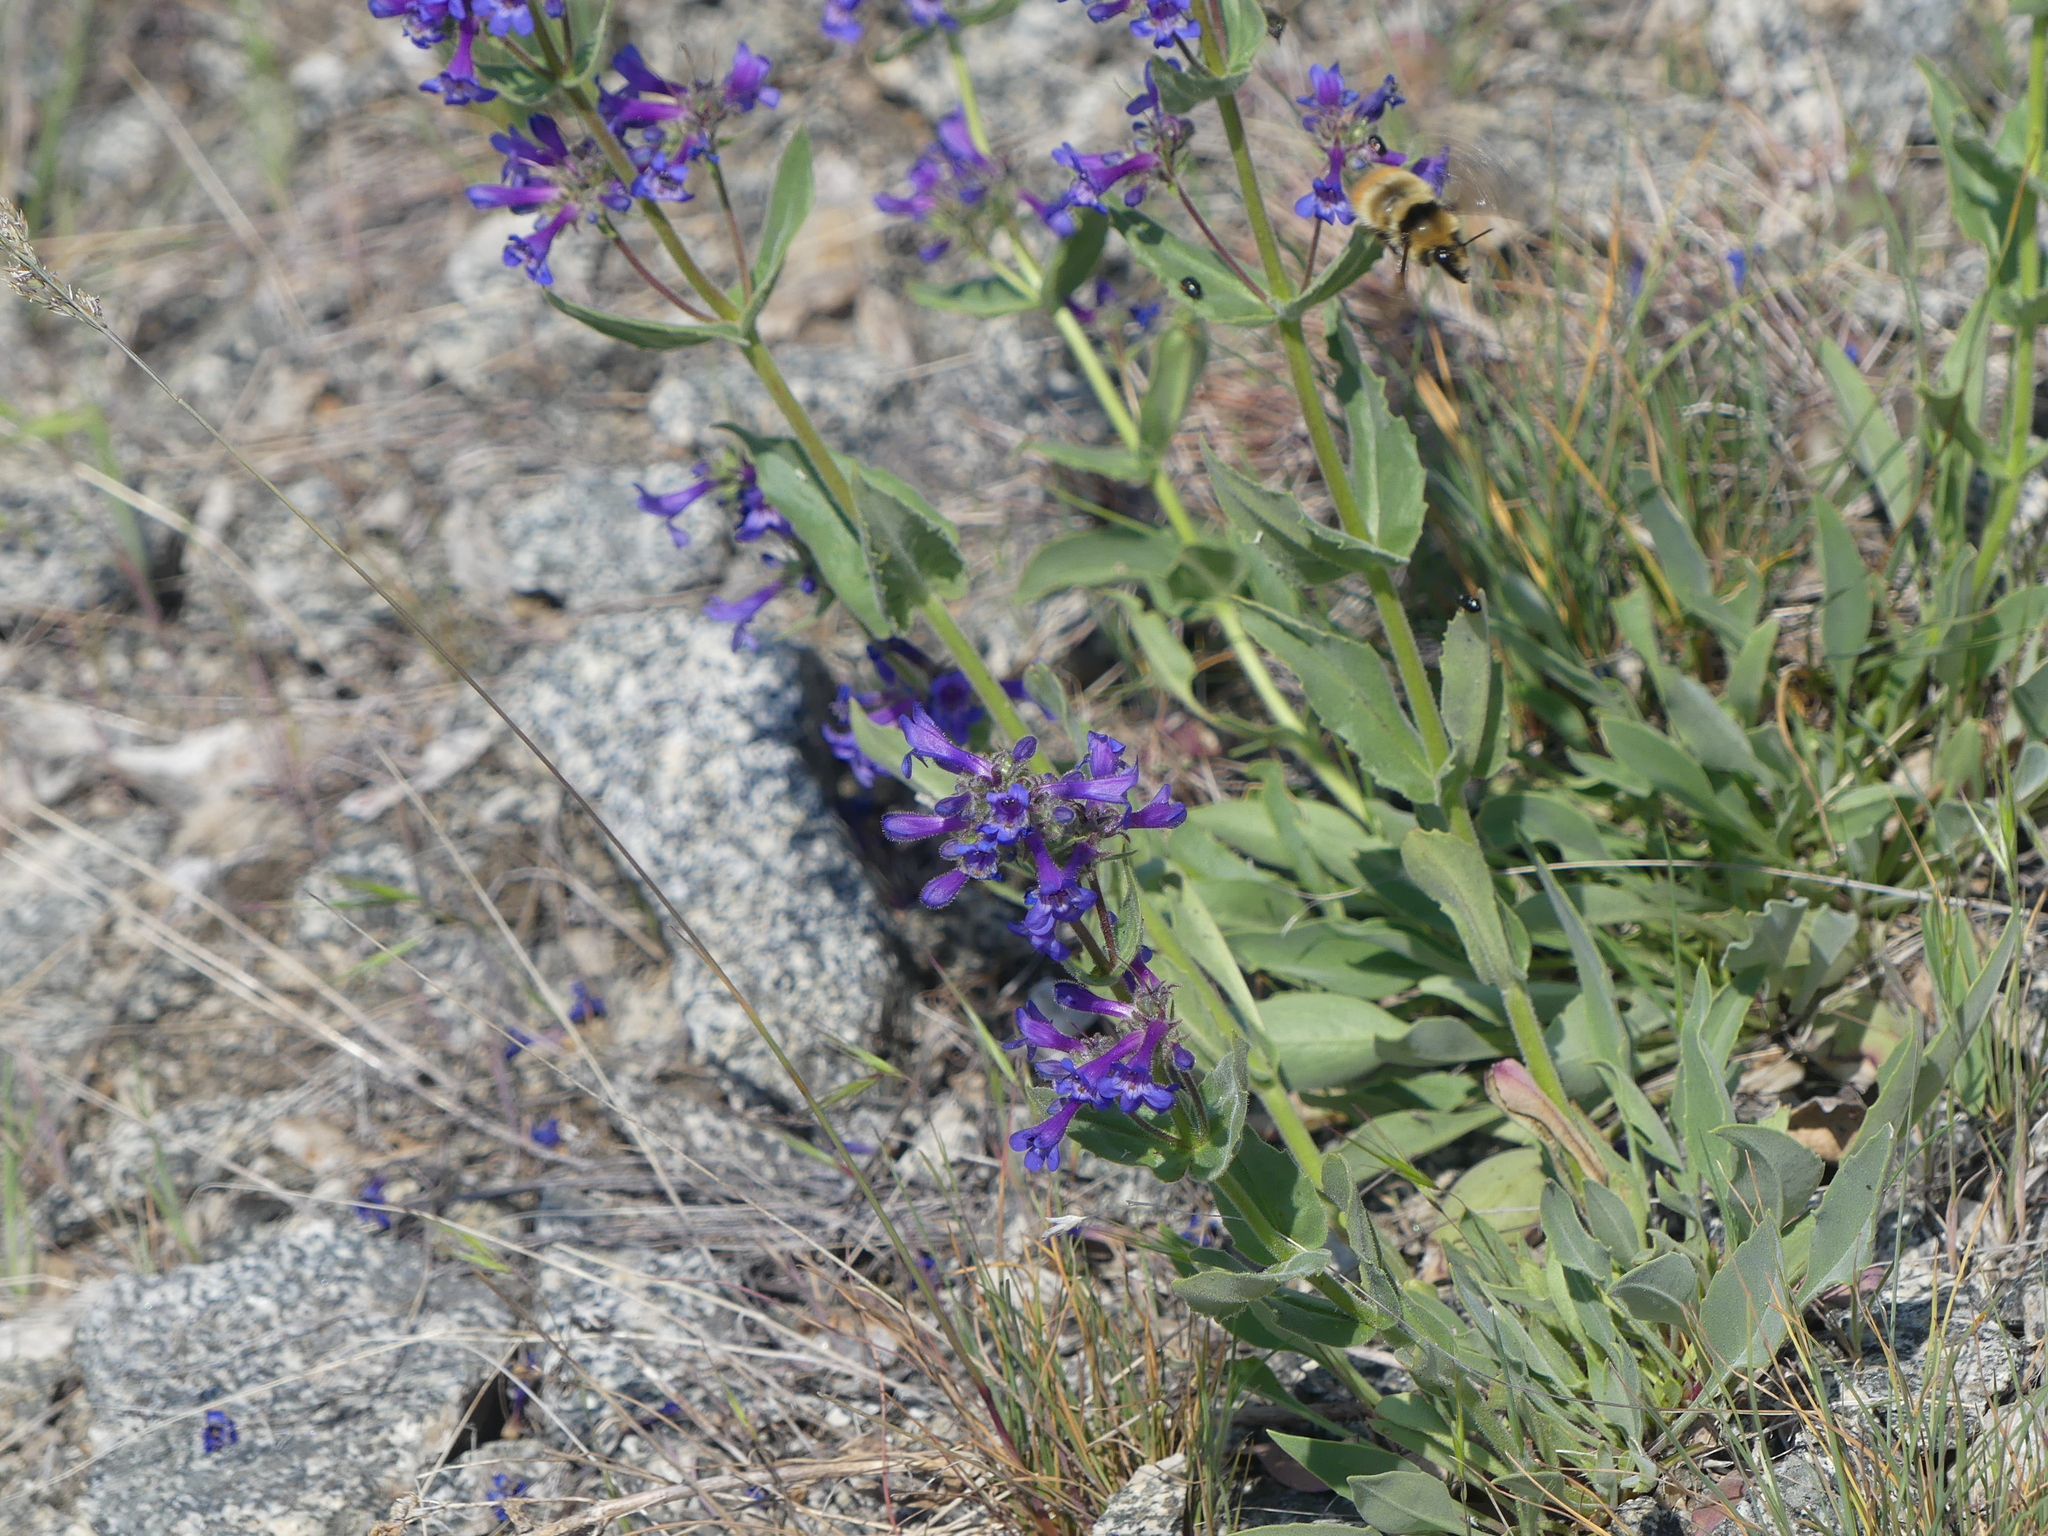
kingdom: Plantae
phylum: Tracheophyta
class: Magnoliopsida
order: Lamiales
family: Plantaginaceae
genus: Penstemon
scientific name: Penstemon pruinosus
